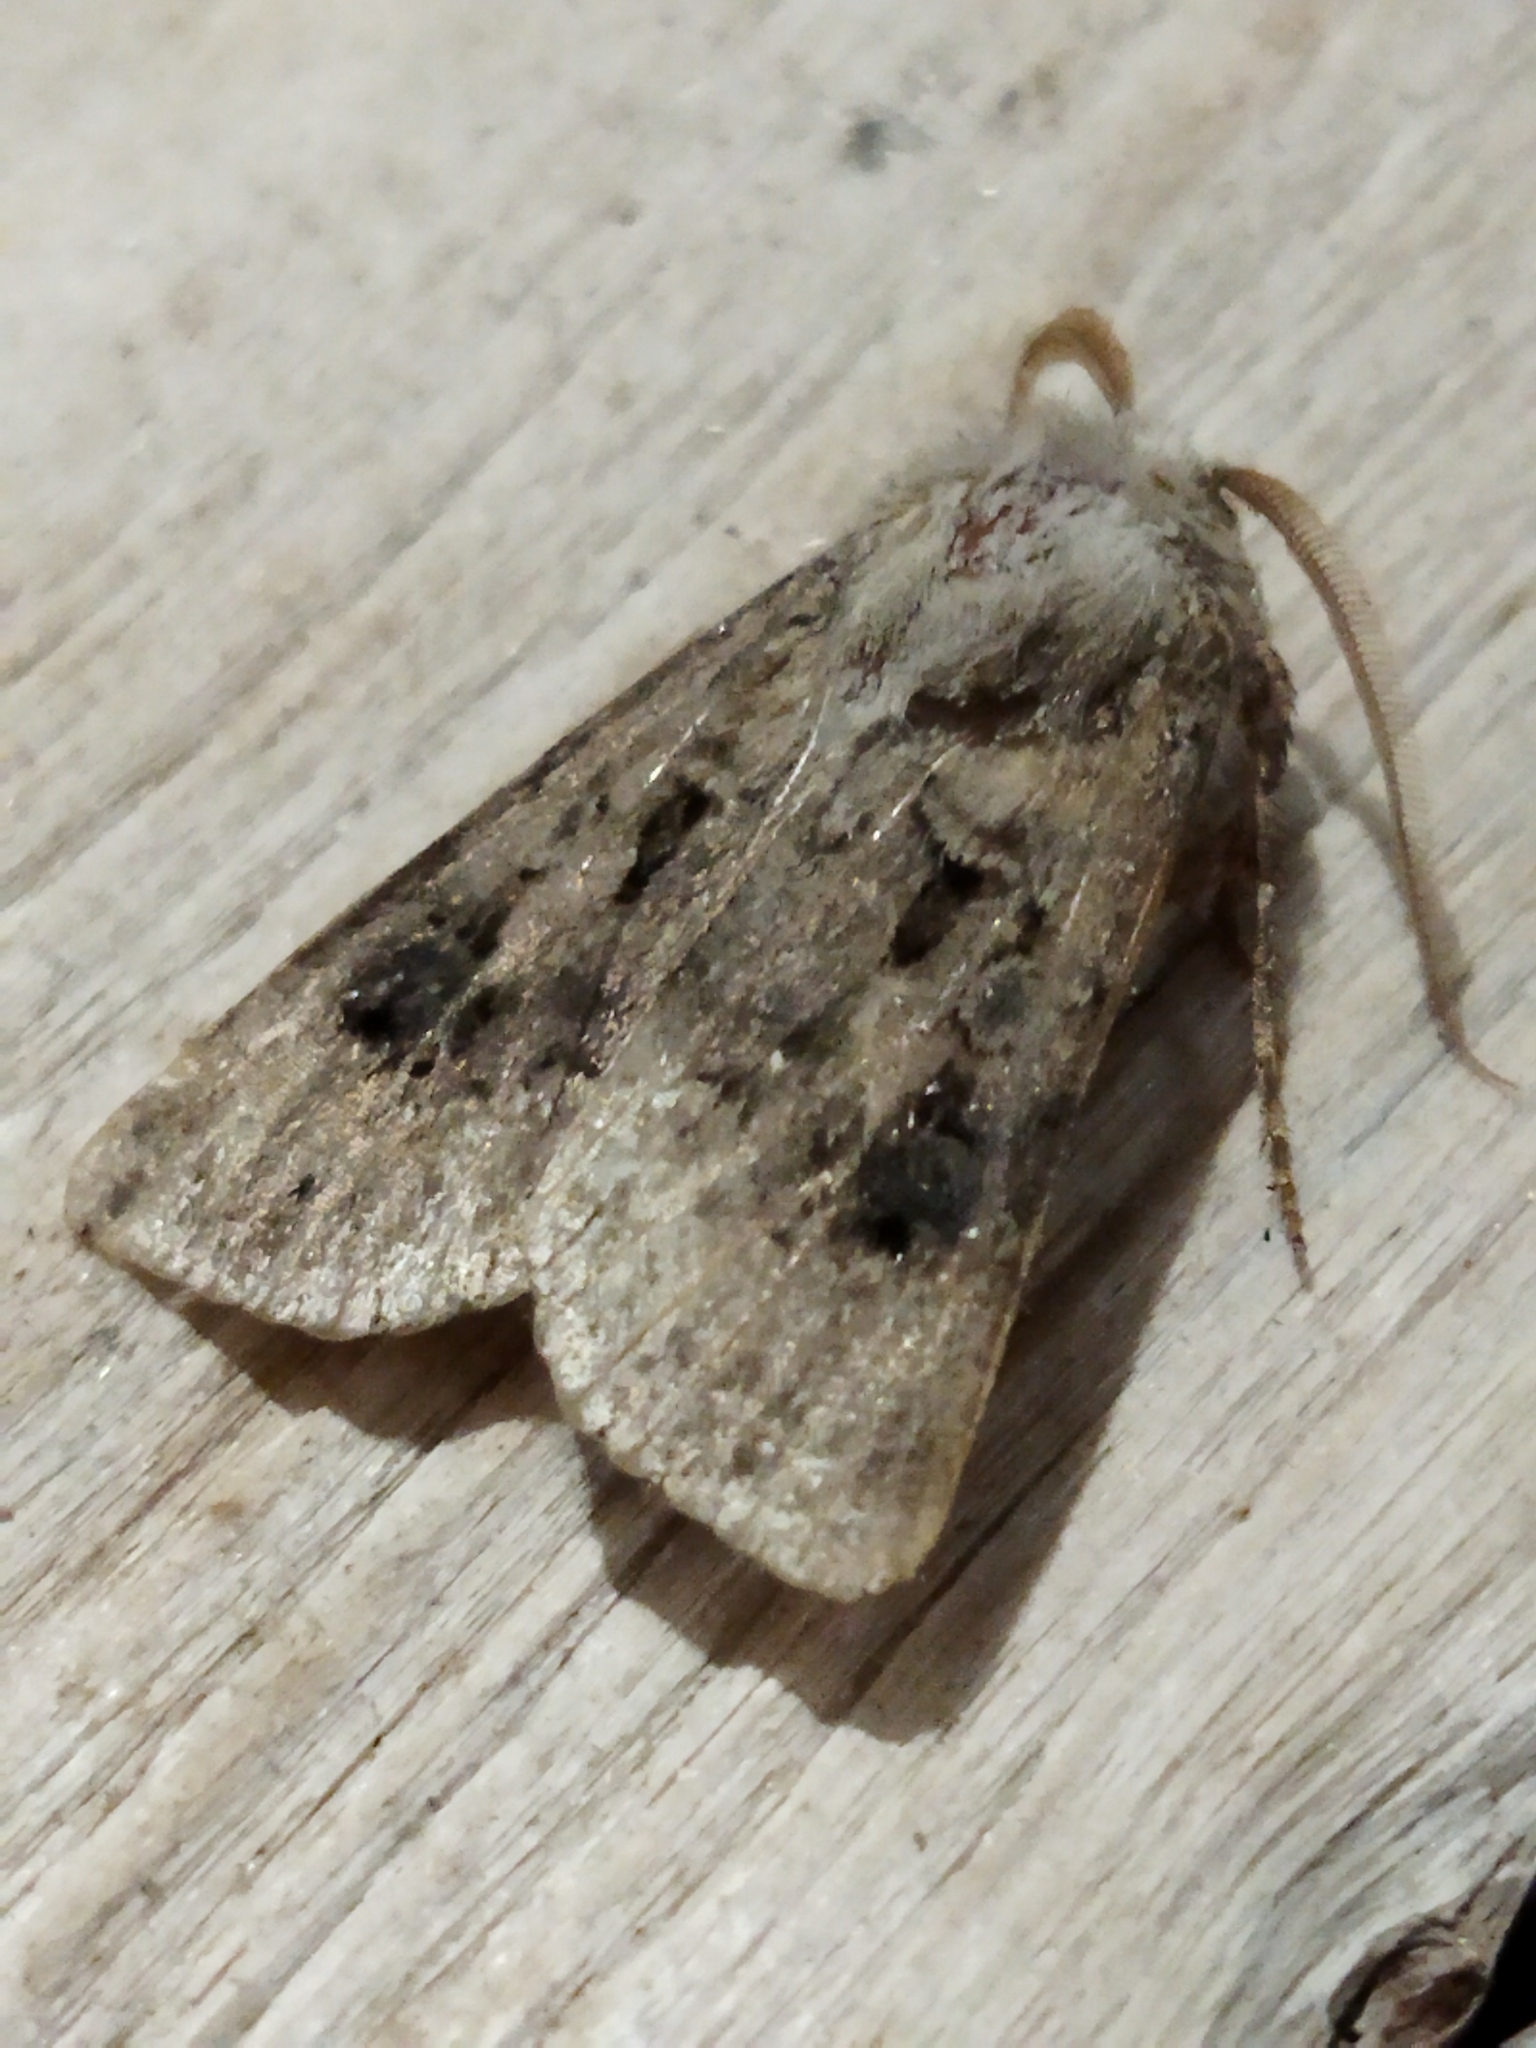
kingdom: Animalia
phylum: Arthropoda
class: Insecta
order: Lepidoptera
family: Noctuidae
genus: Agrotis
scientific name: Agrotis bigramma
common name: Great dart
